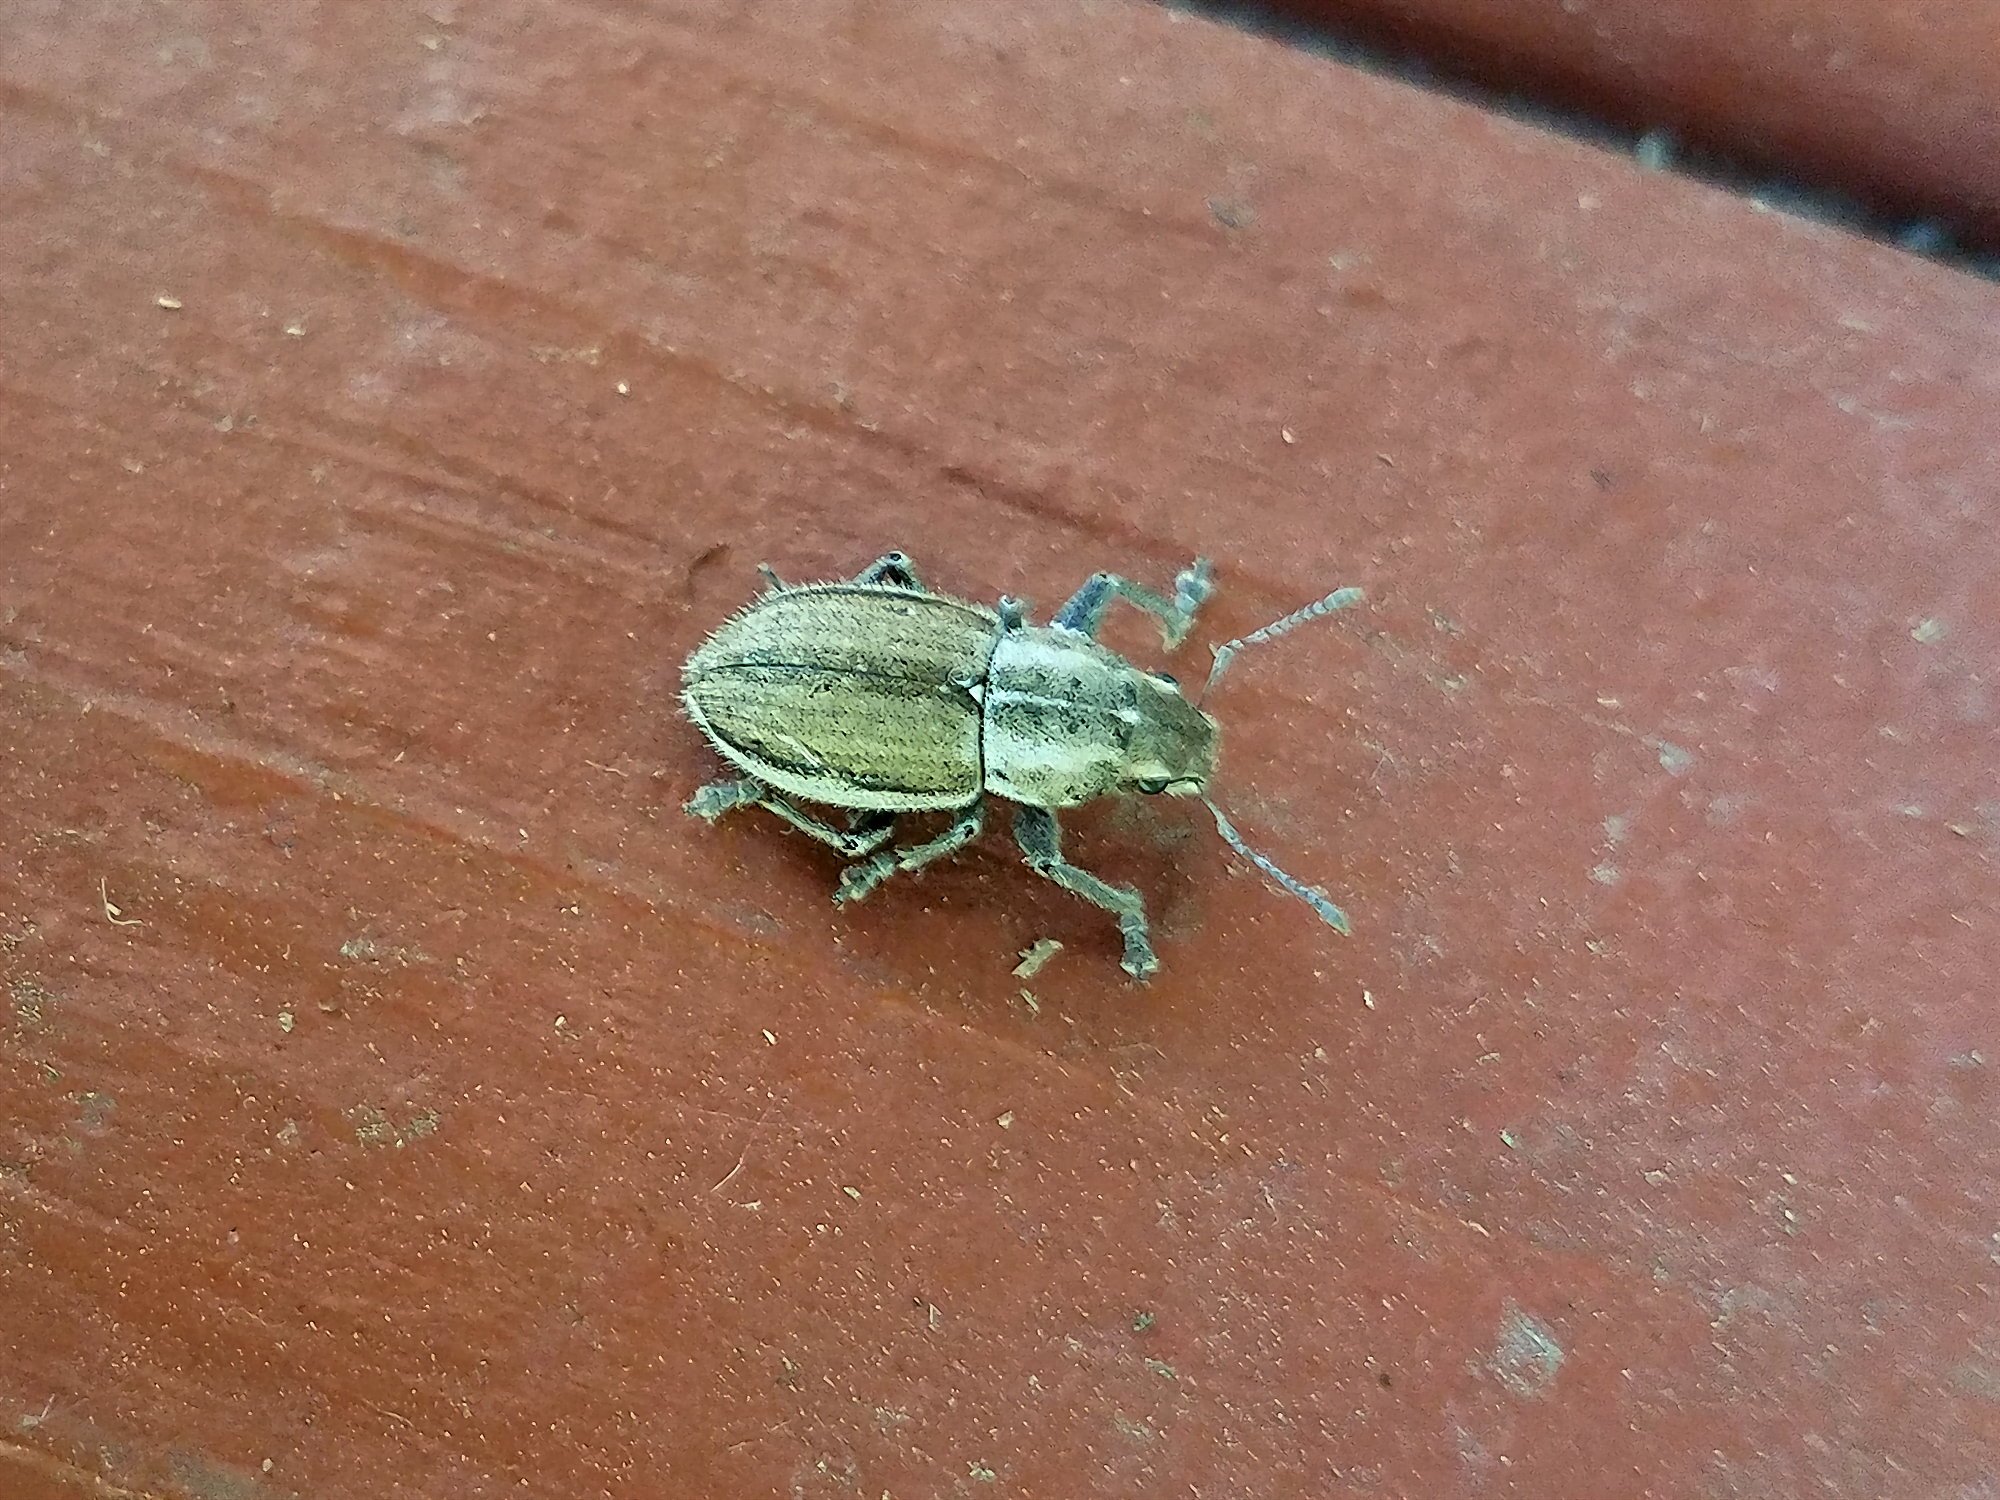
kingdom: Animalia
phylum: Arthropoda
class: Insecta
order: Coleoptera
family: Curculionidae
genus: Naupactus
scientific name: Naupactus peregrinus
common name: Whitefringed beetle
